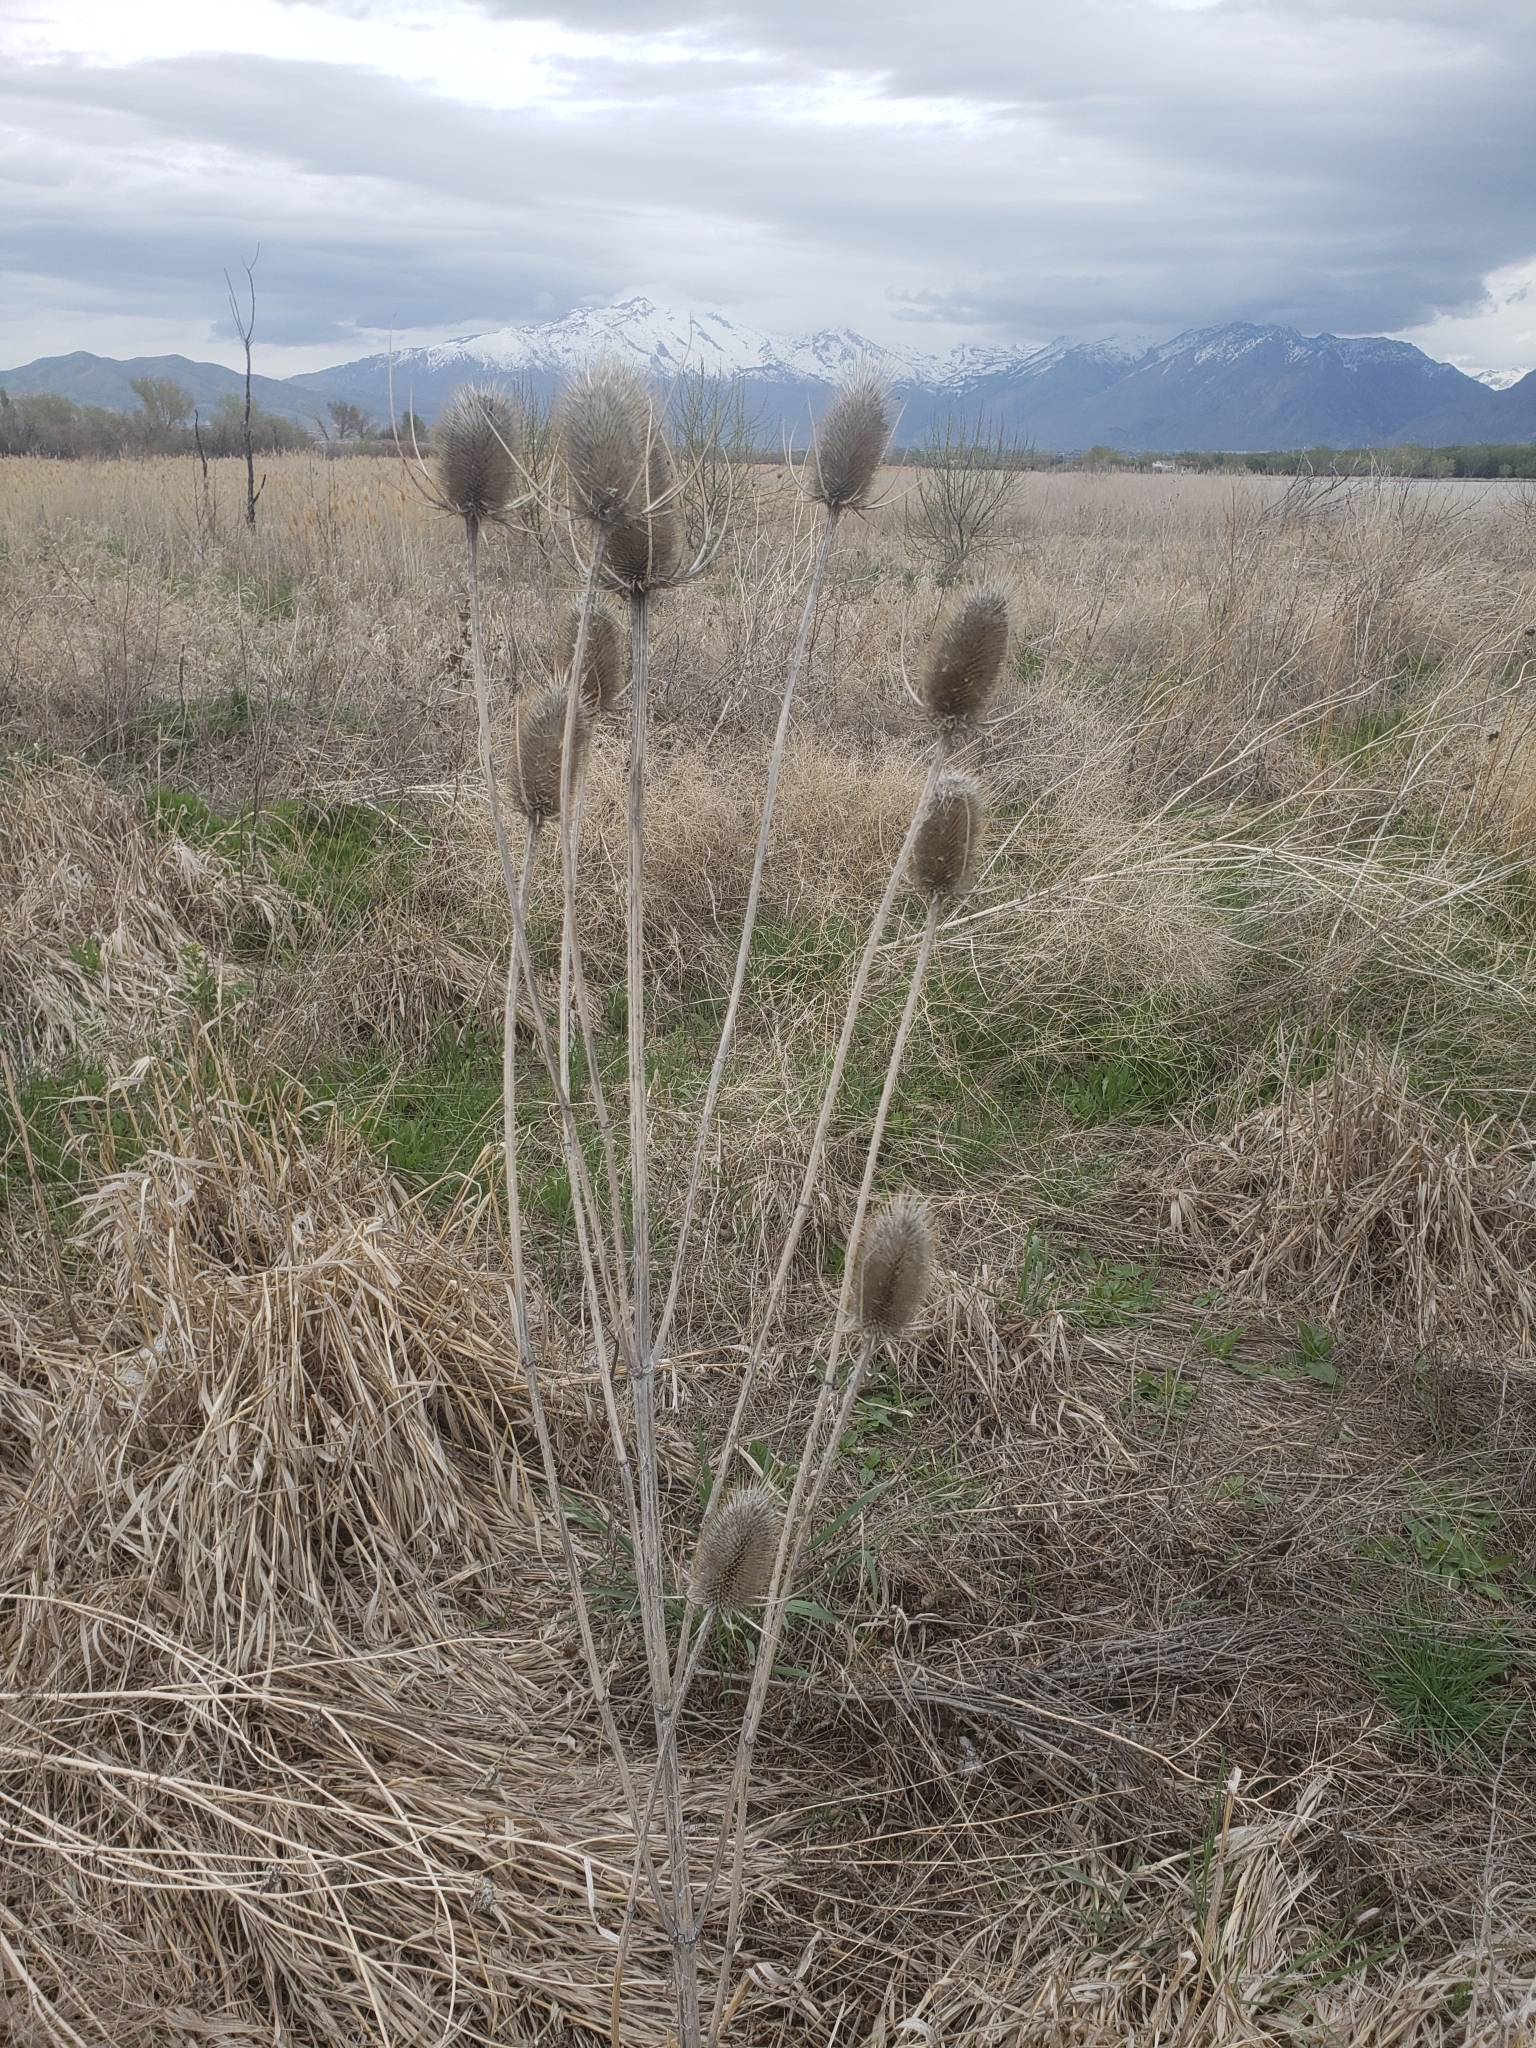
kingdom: Plantae
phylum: Tracheophyta
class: Magnoliopsida
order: Dipsacales
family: Caprifoliaceae
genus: Dipsacus
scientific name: Dipsacus fullonum
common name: Teasel
